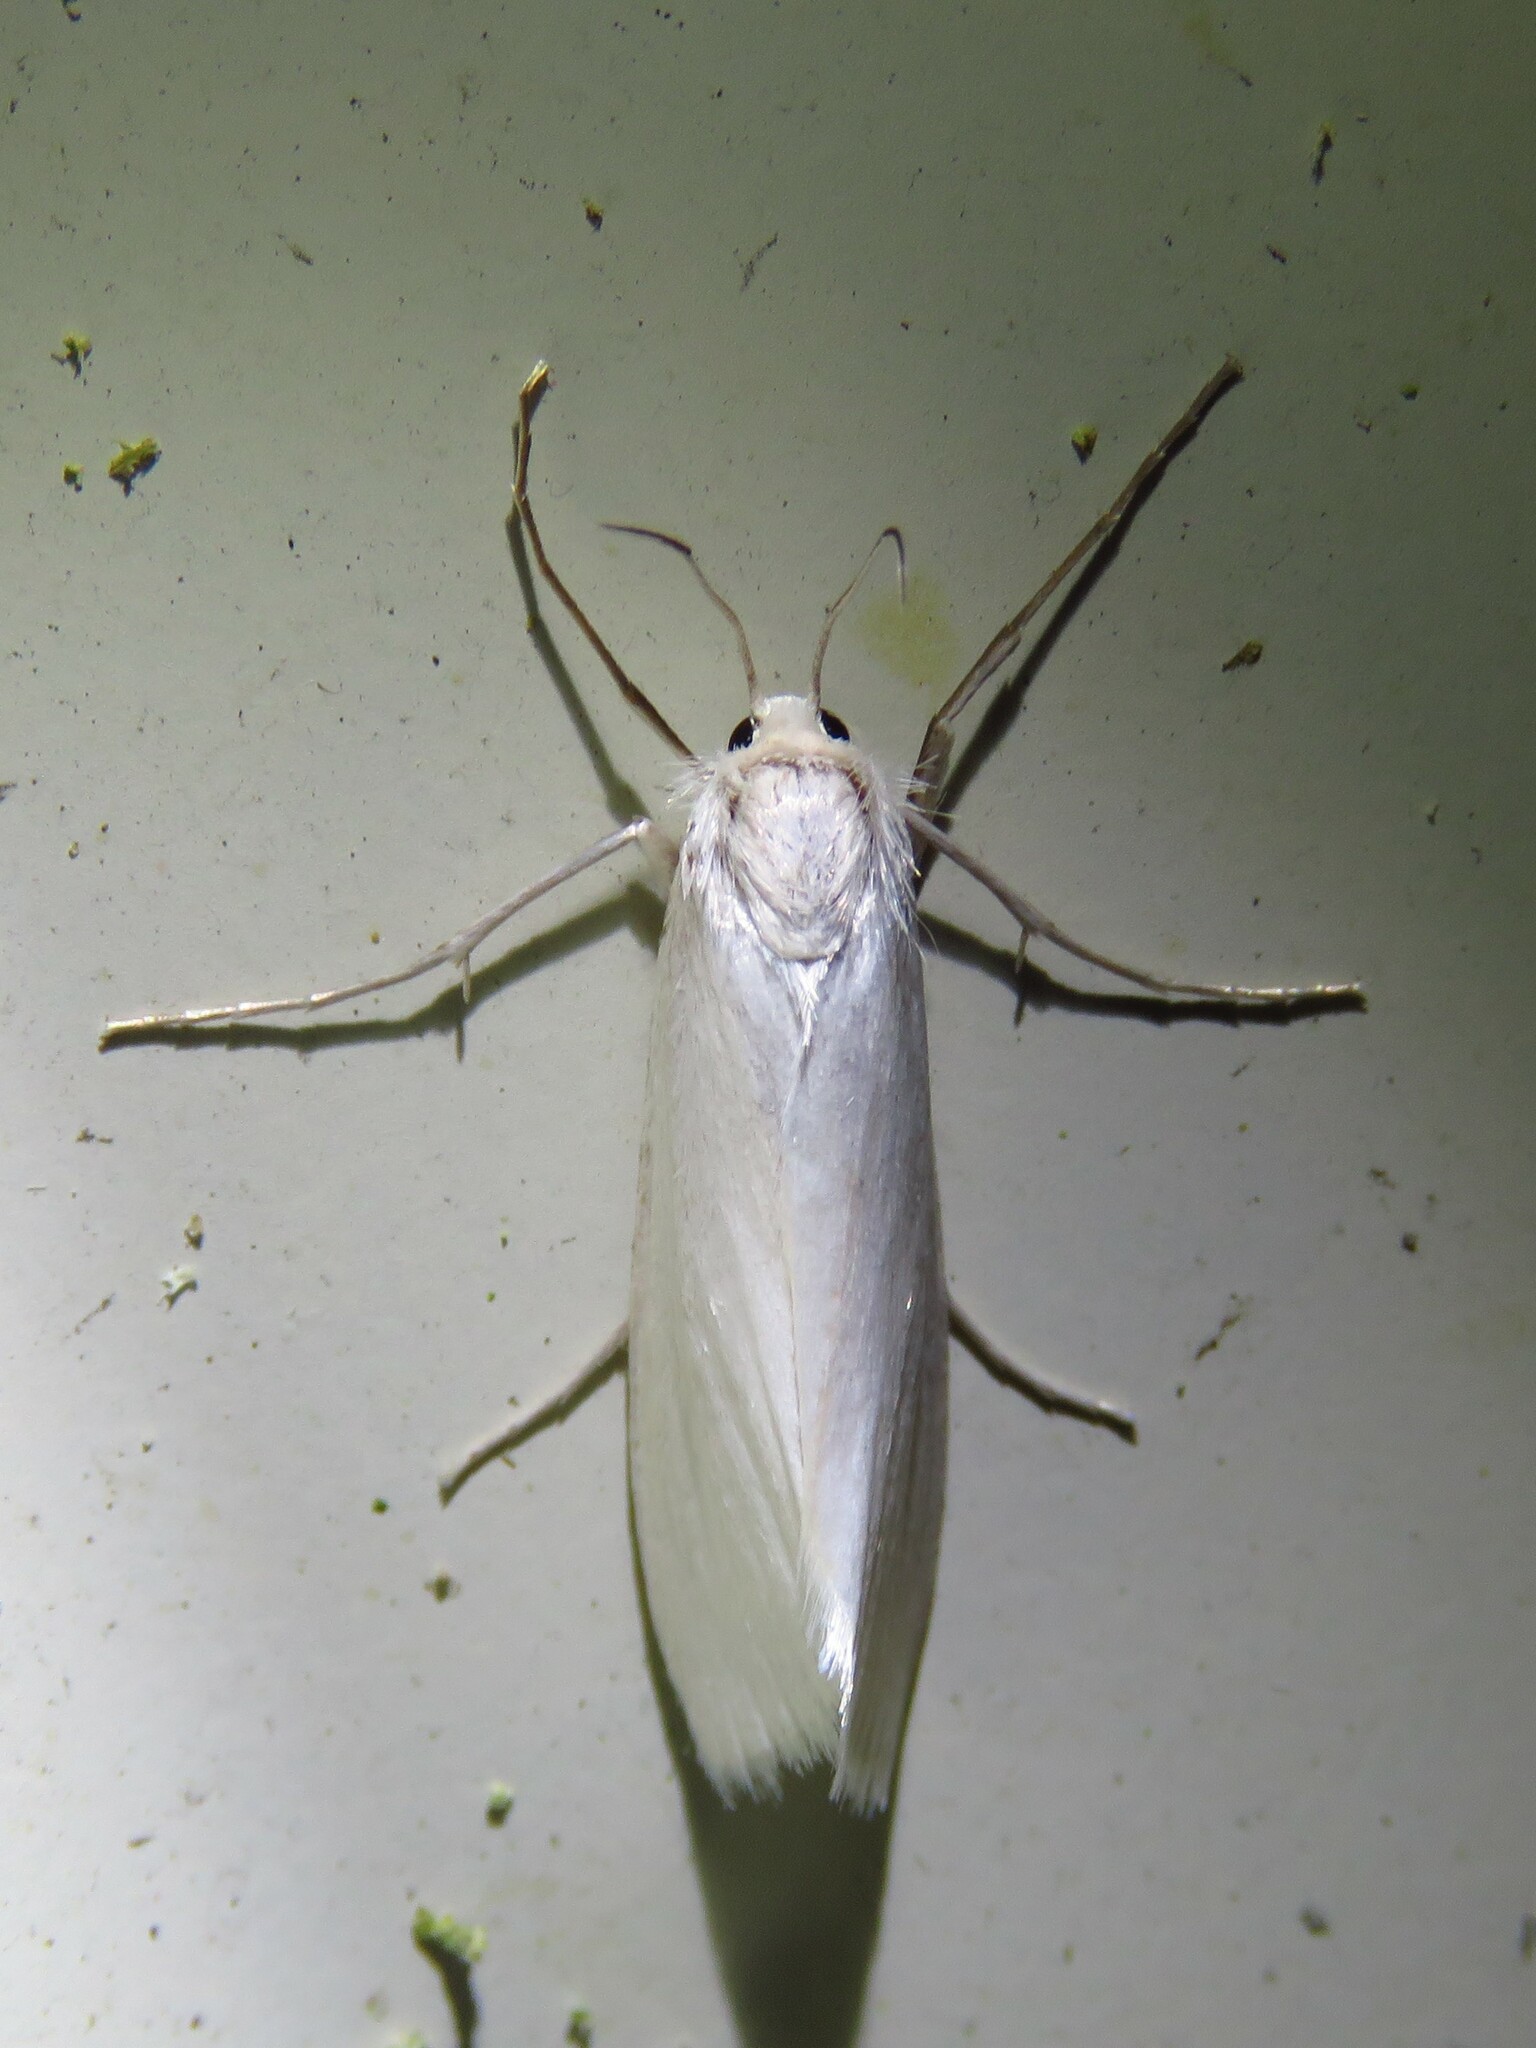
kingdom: Animalia
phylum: Arthropoda
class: Insecta
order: Lepidoptera
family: Crambidae
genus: Rupela
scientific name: Rupela tinctella
